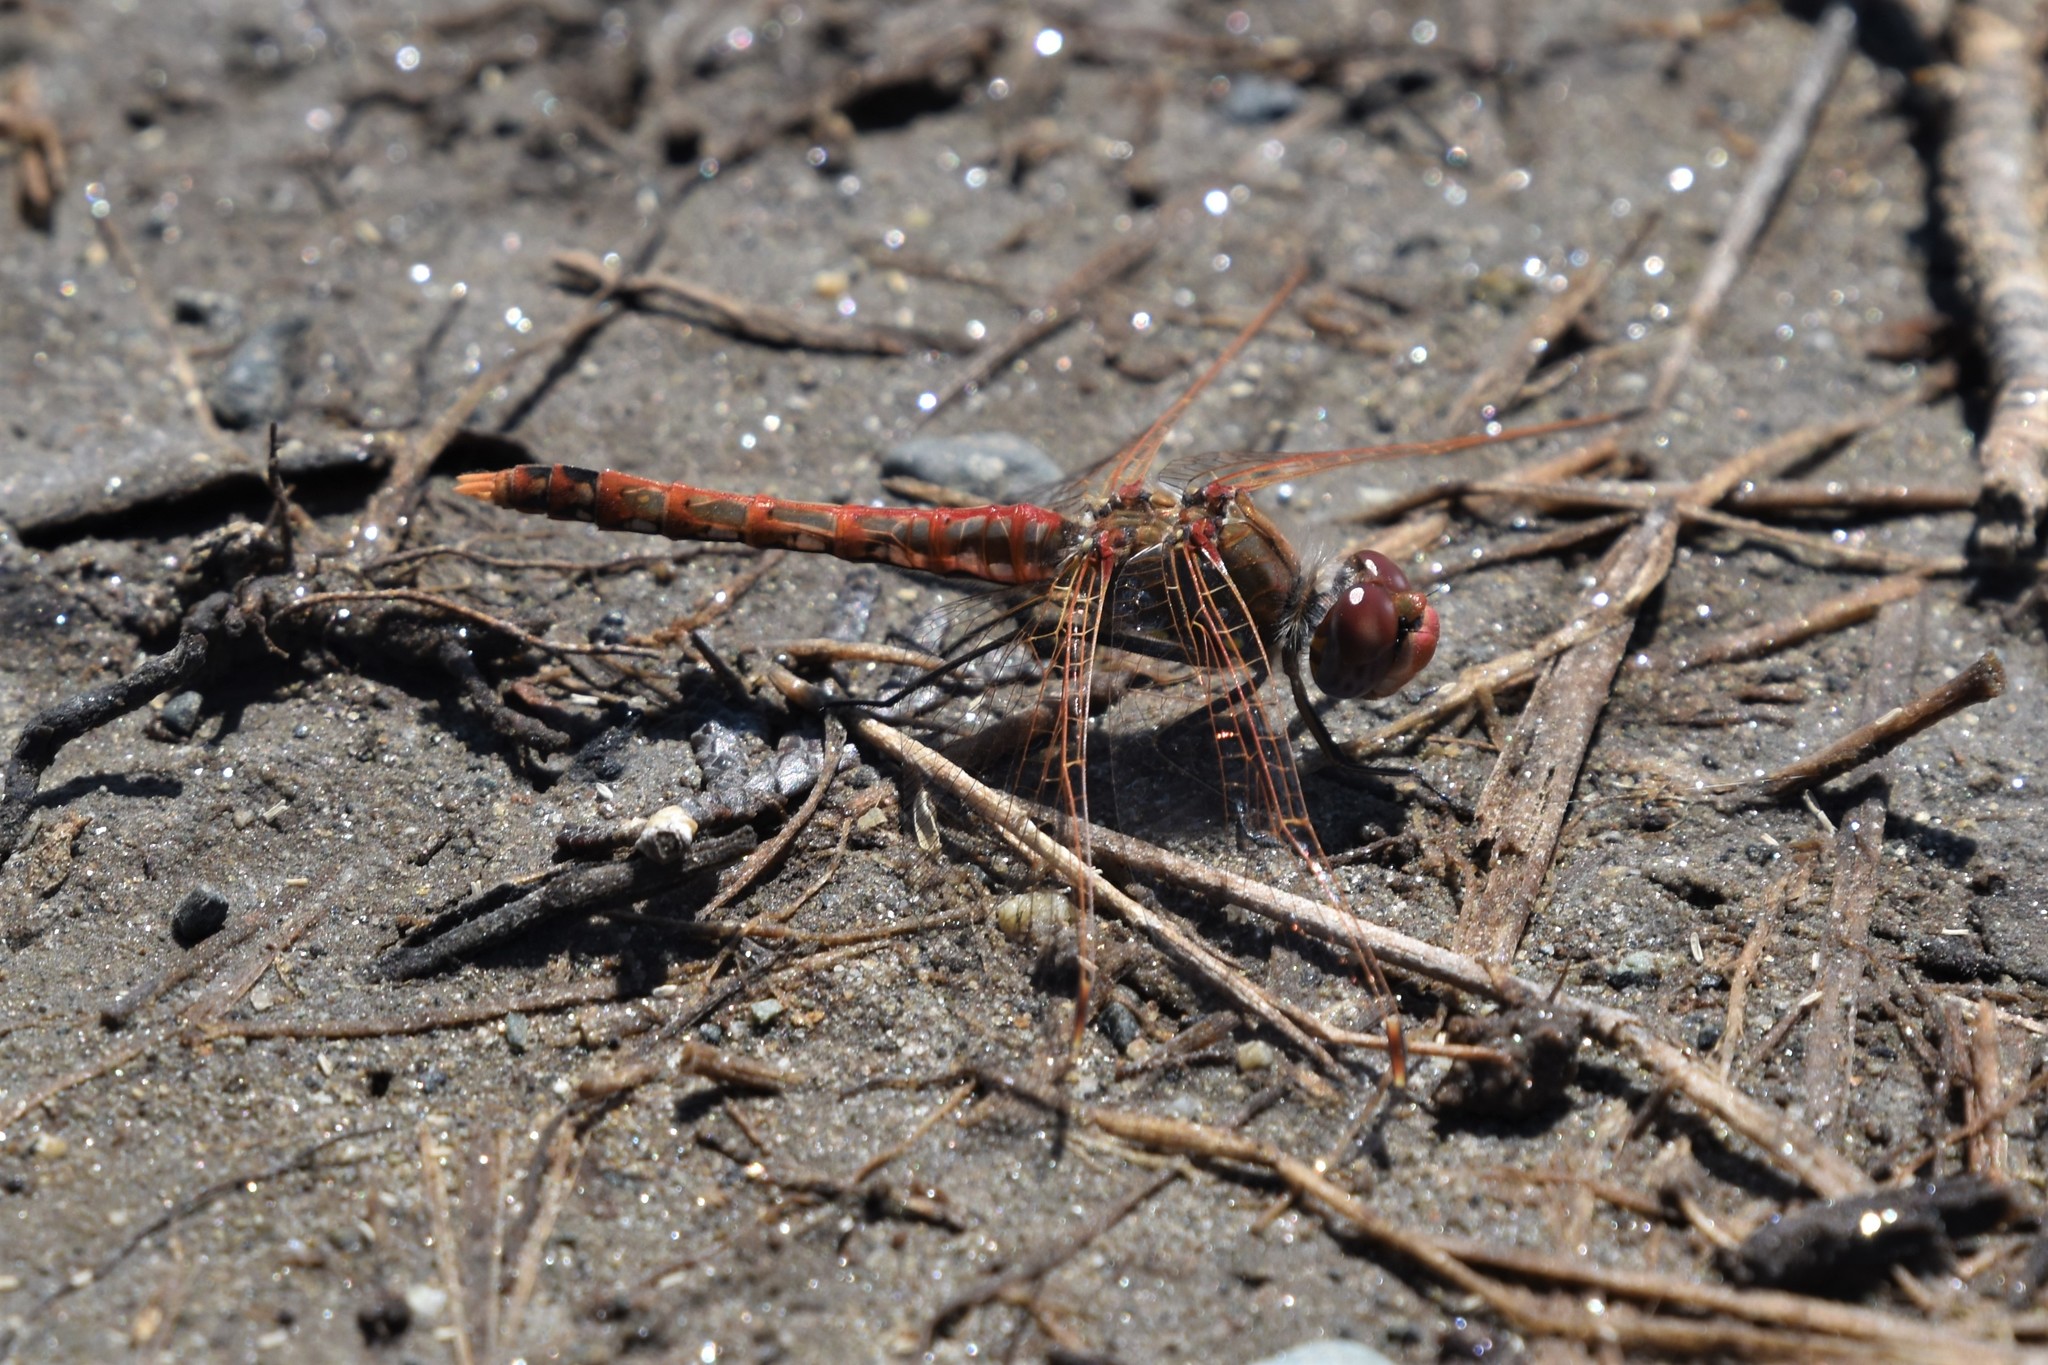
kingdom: Animalia
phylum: Arthropoda
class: Insecta
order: Odonata
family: Libellulidae
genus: Sympetrum
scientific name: Sympetrum corruptum
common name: Variegated meadowhawk
